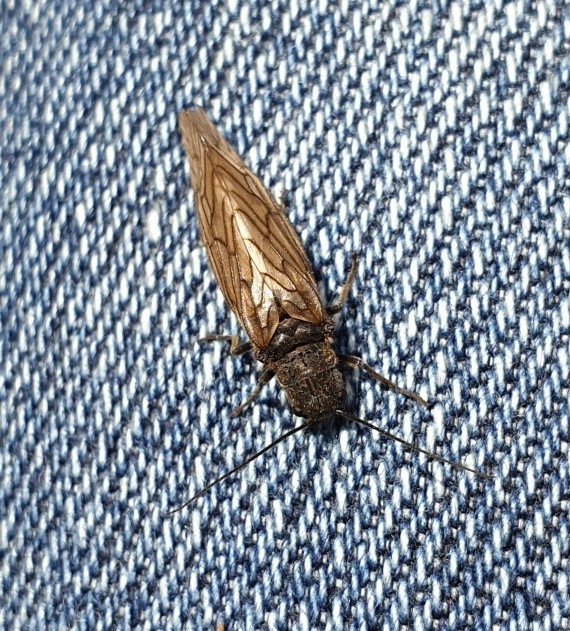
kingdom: Animalia
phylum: Arthropoda
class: Insecta
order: Megaloptera
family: Sialidae
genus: Sialis
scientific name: Sialis
